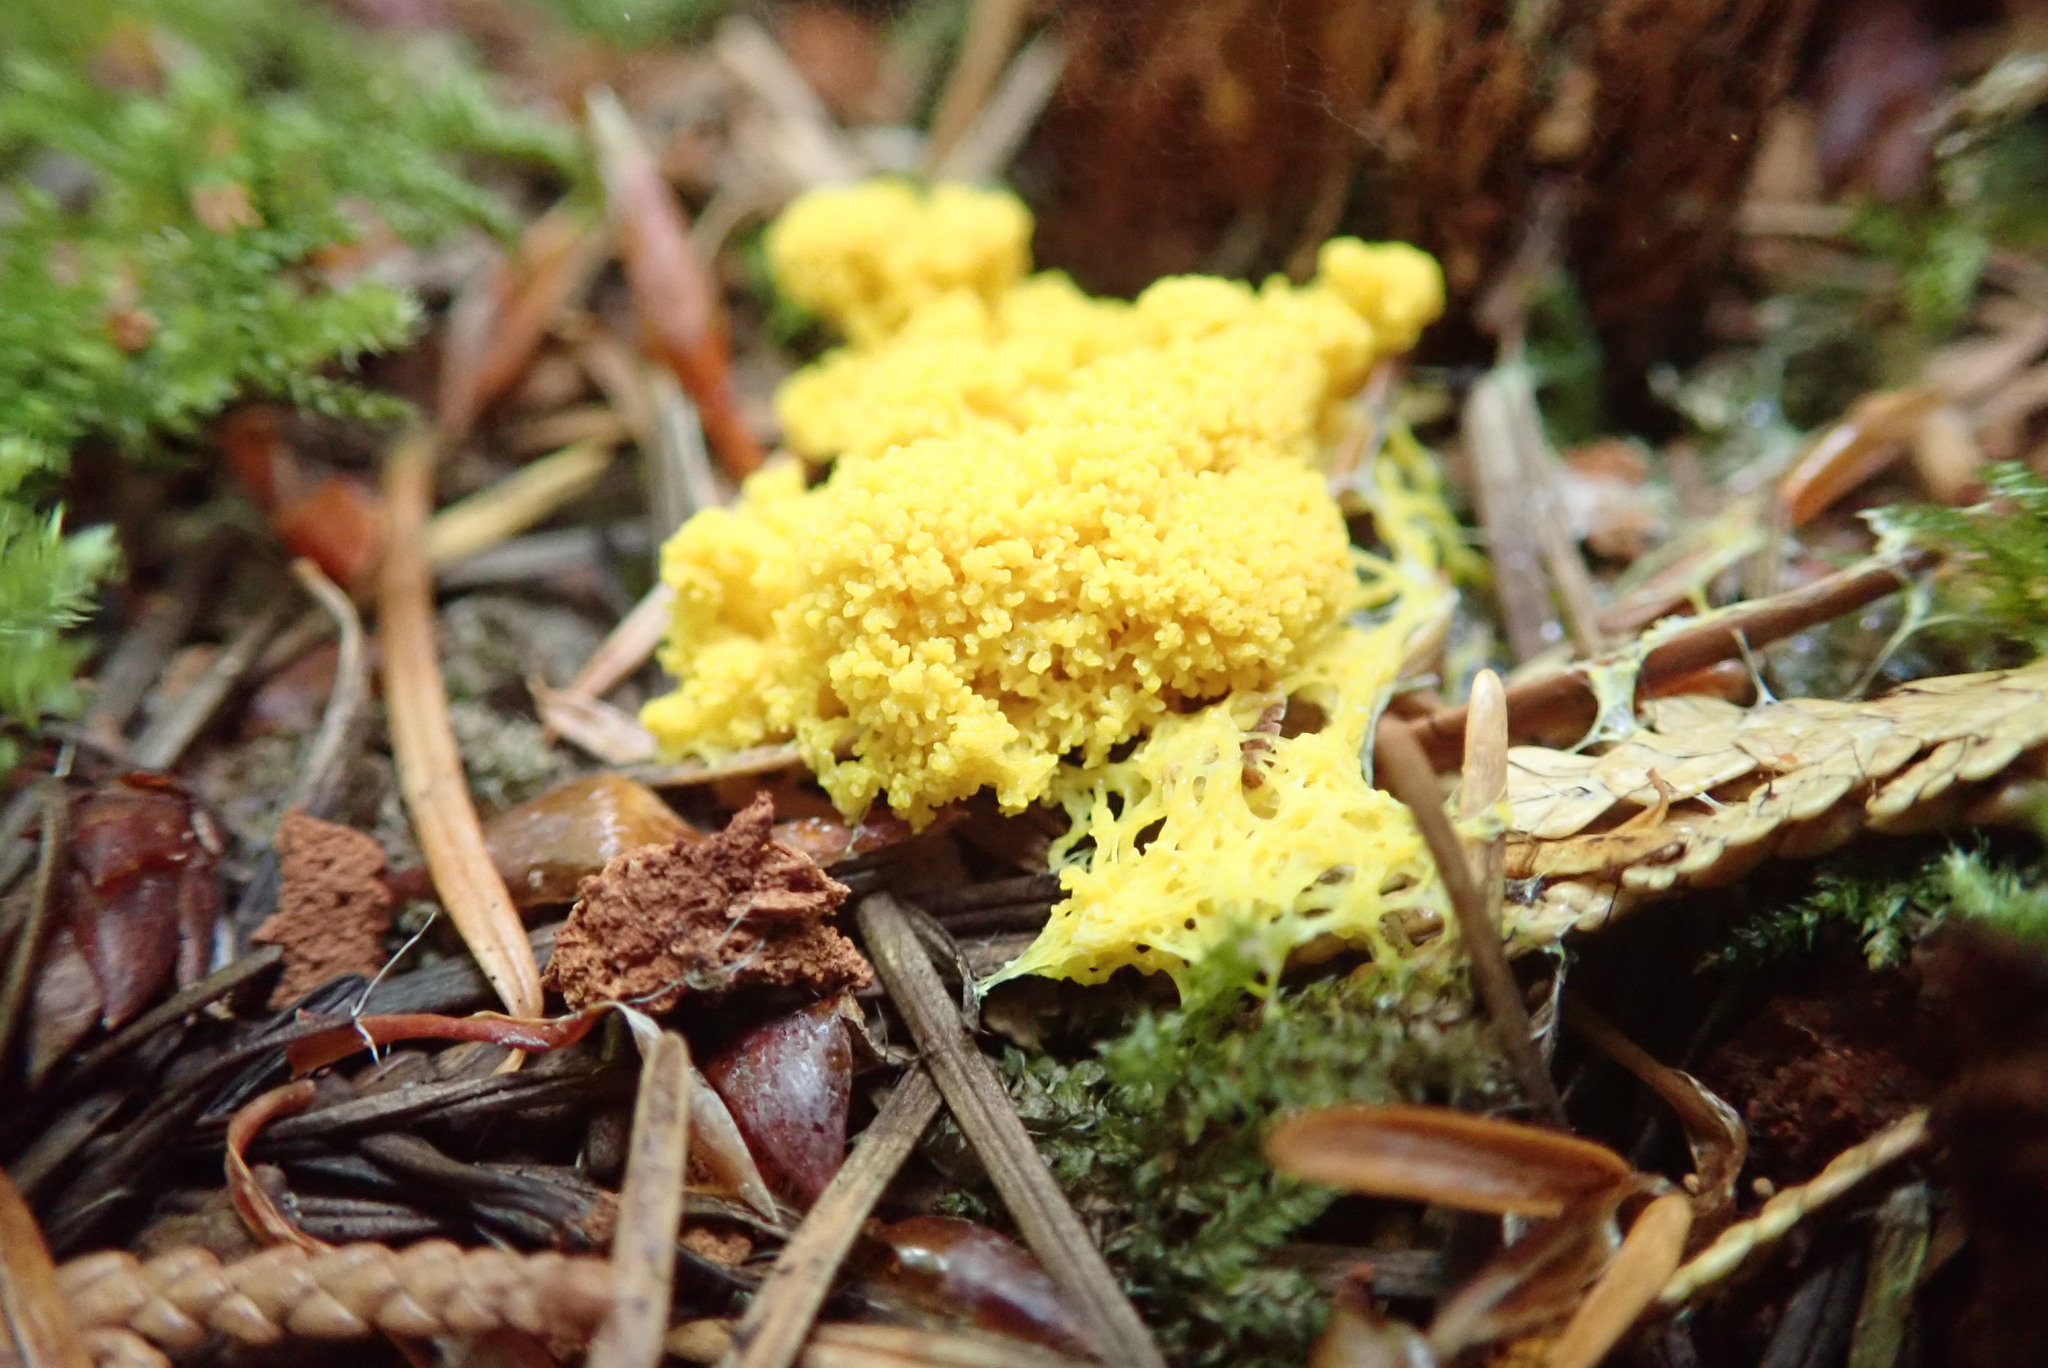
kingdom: Protozoa
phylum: Mycetozoa
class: Myxomycetes
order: Physarales
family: Physaraceae
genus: Fuligo
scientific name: Fuligo septica
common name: Dog vomit slime mold
